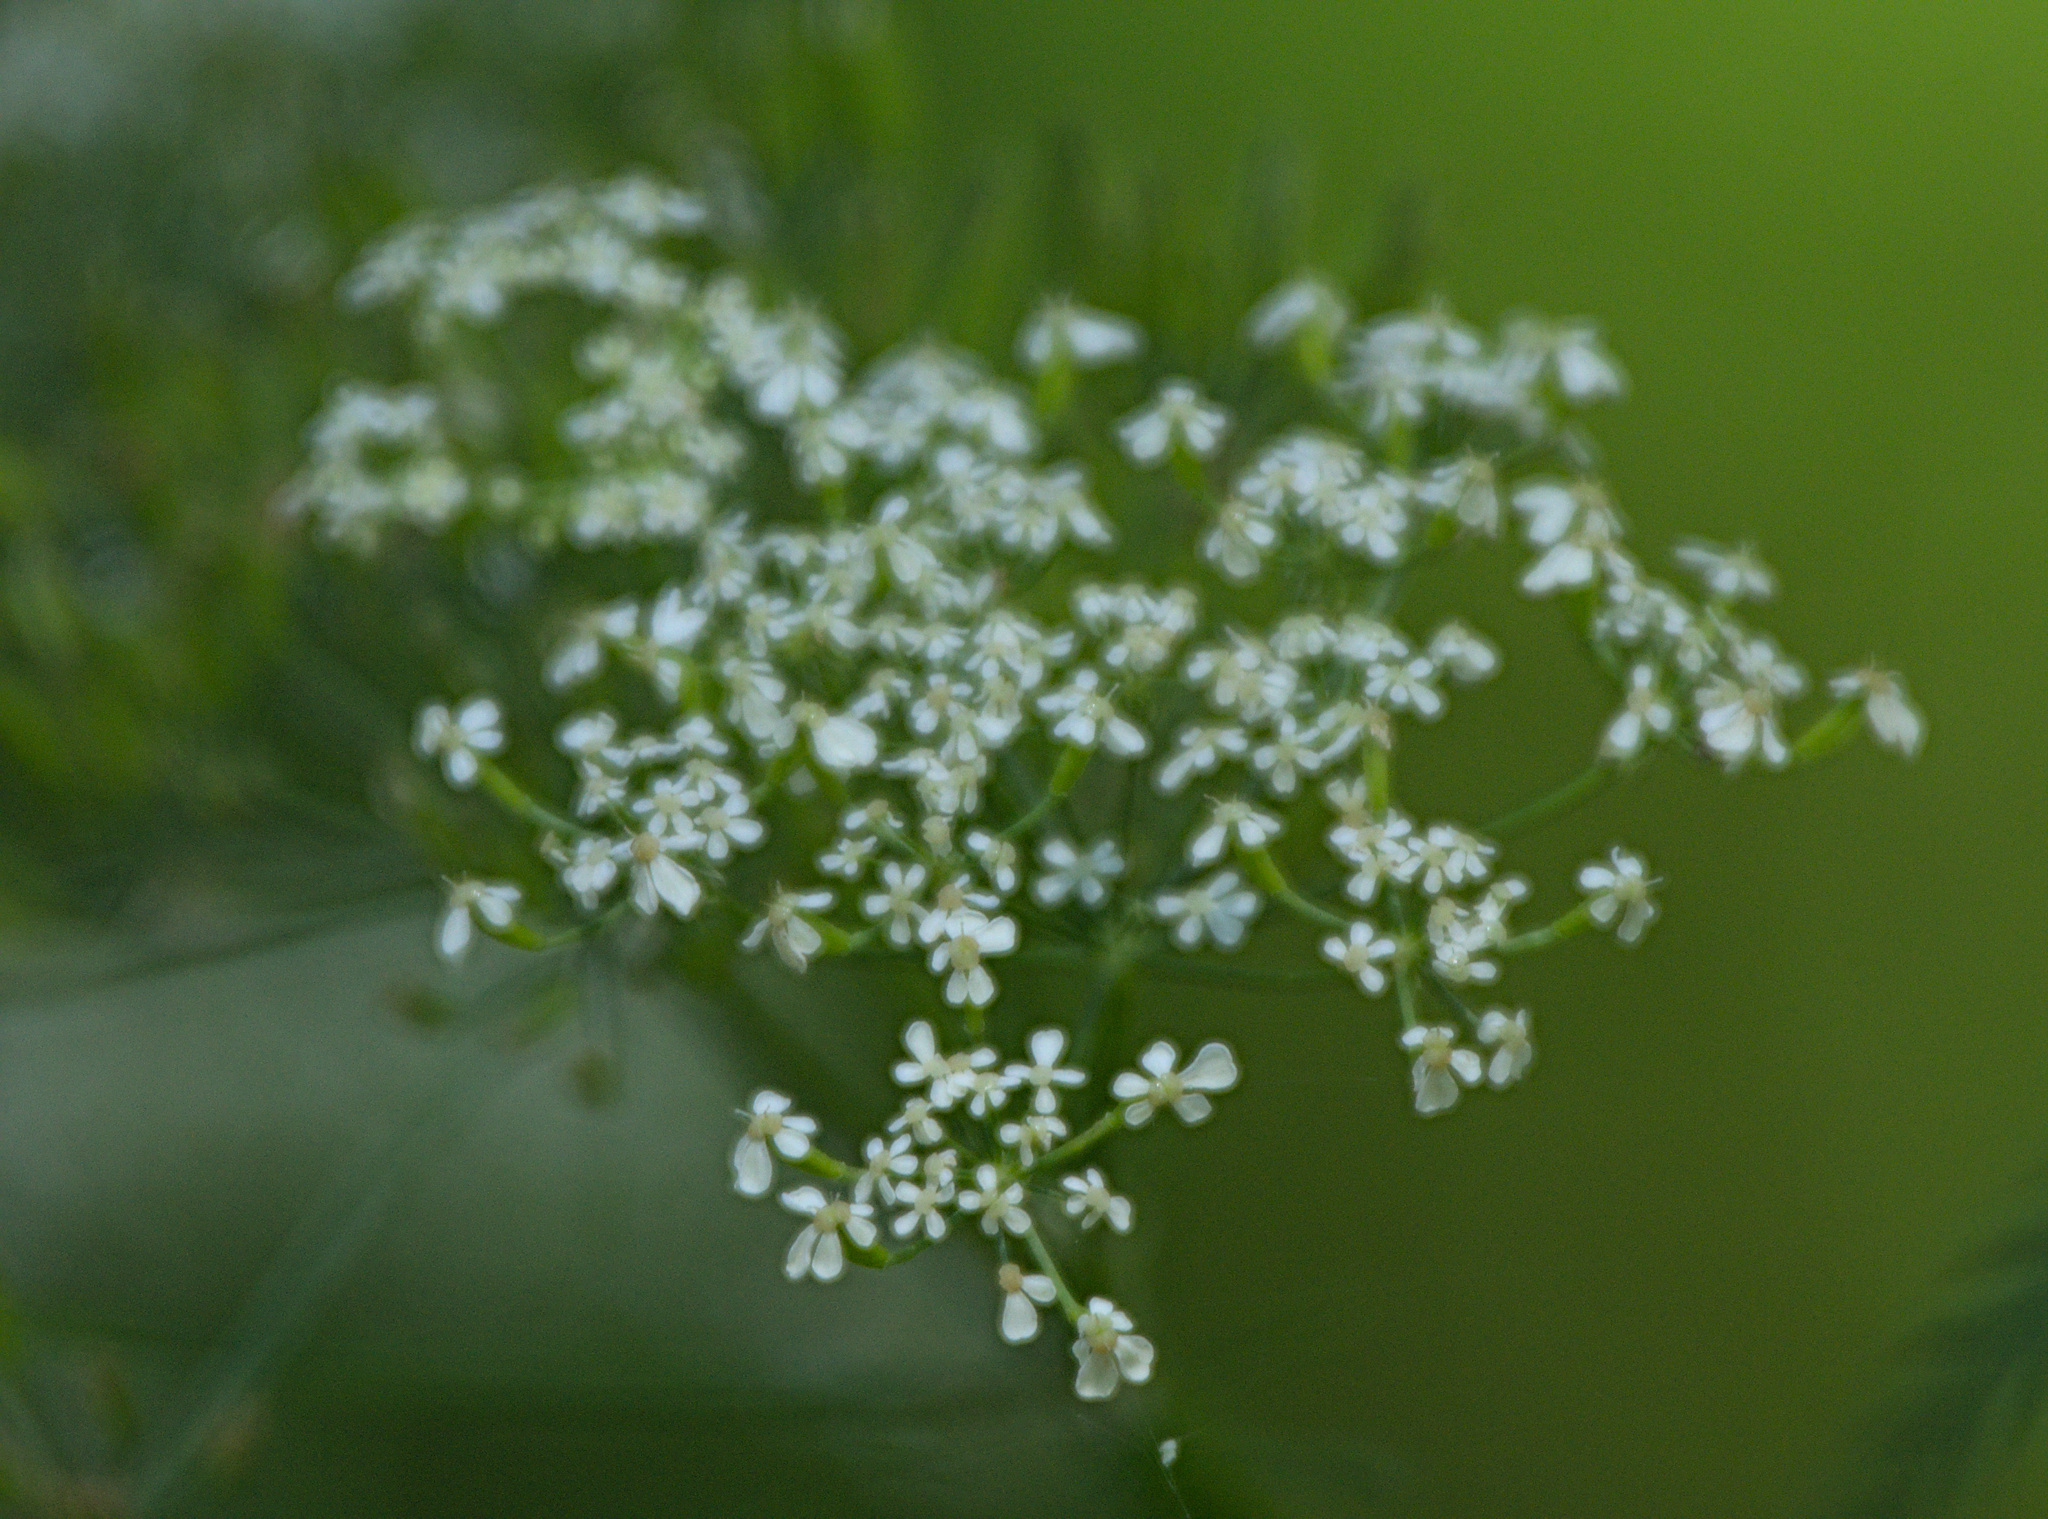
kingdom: Plantae
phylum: Tracheophyta
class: Magnoliopsida
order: Apiales
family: Apiaceae
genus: Anthriscus
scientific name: Anthriscus sylvestris
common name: Cow parsley
